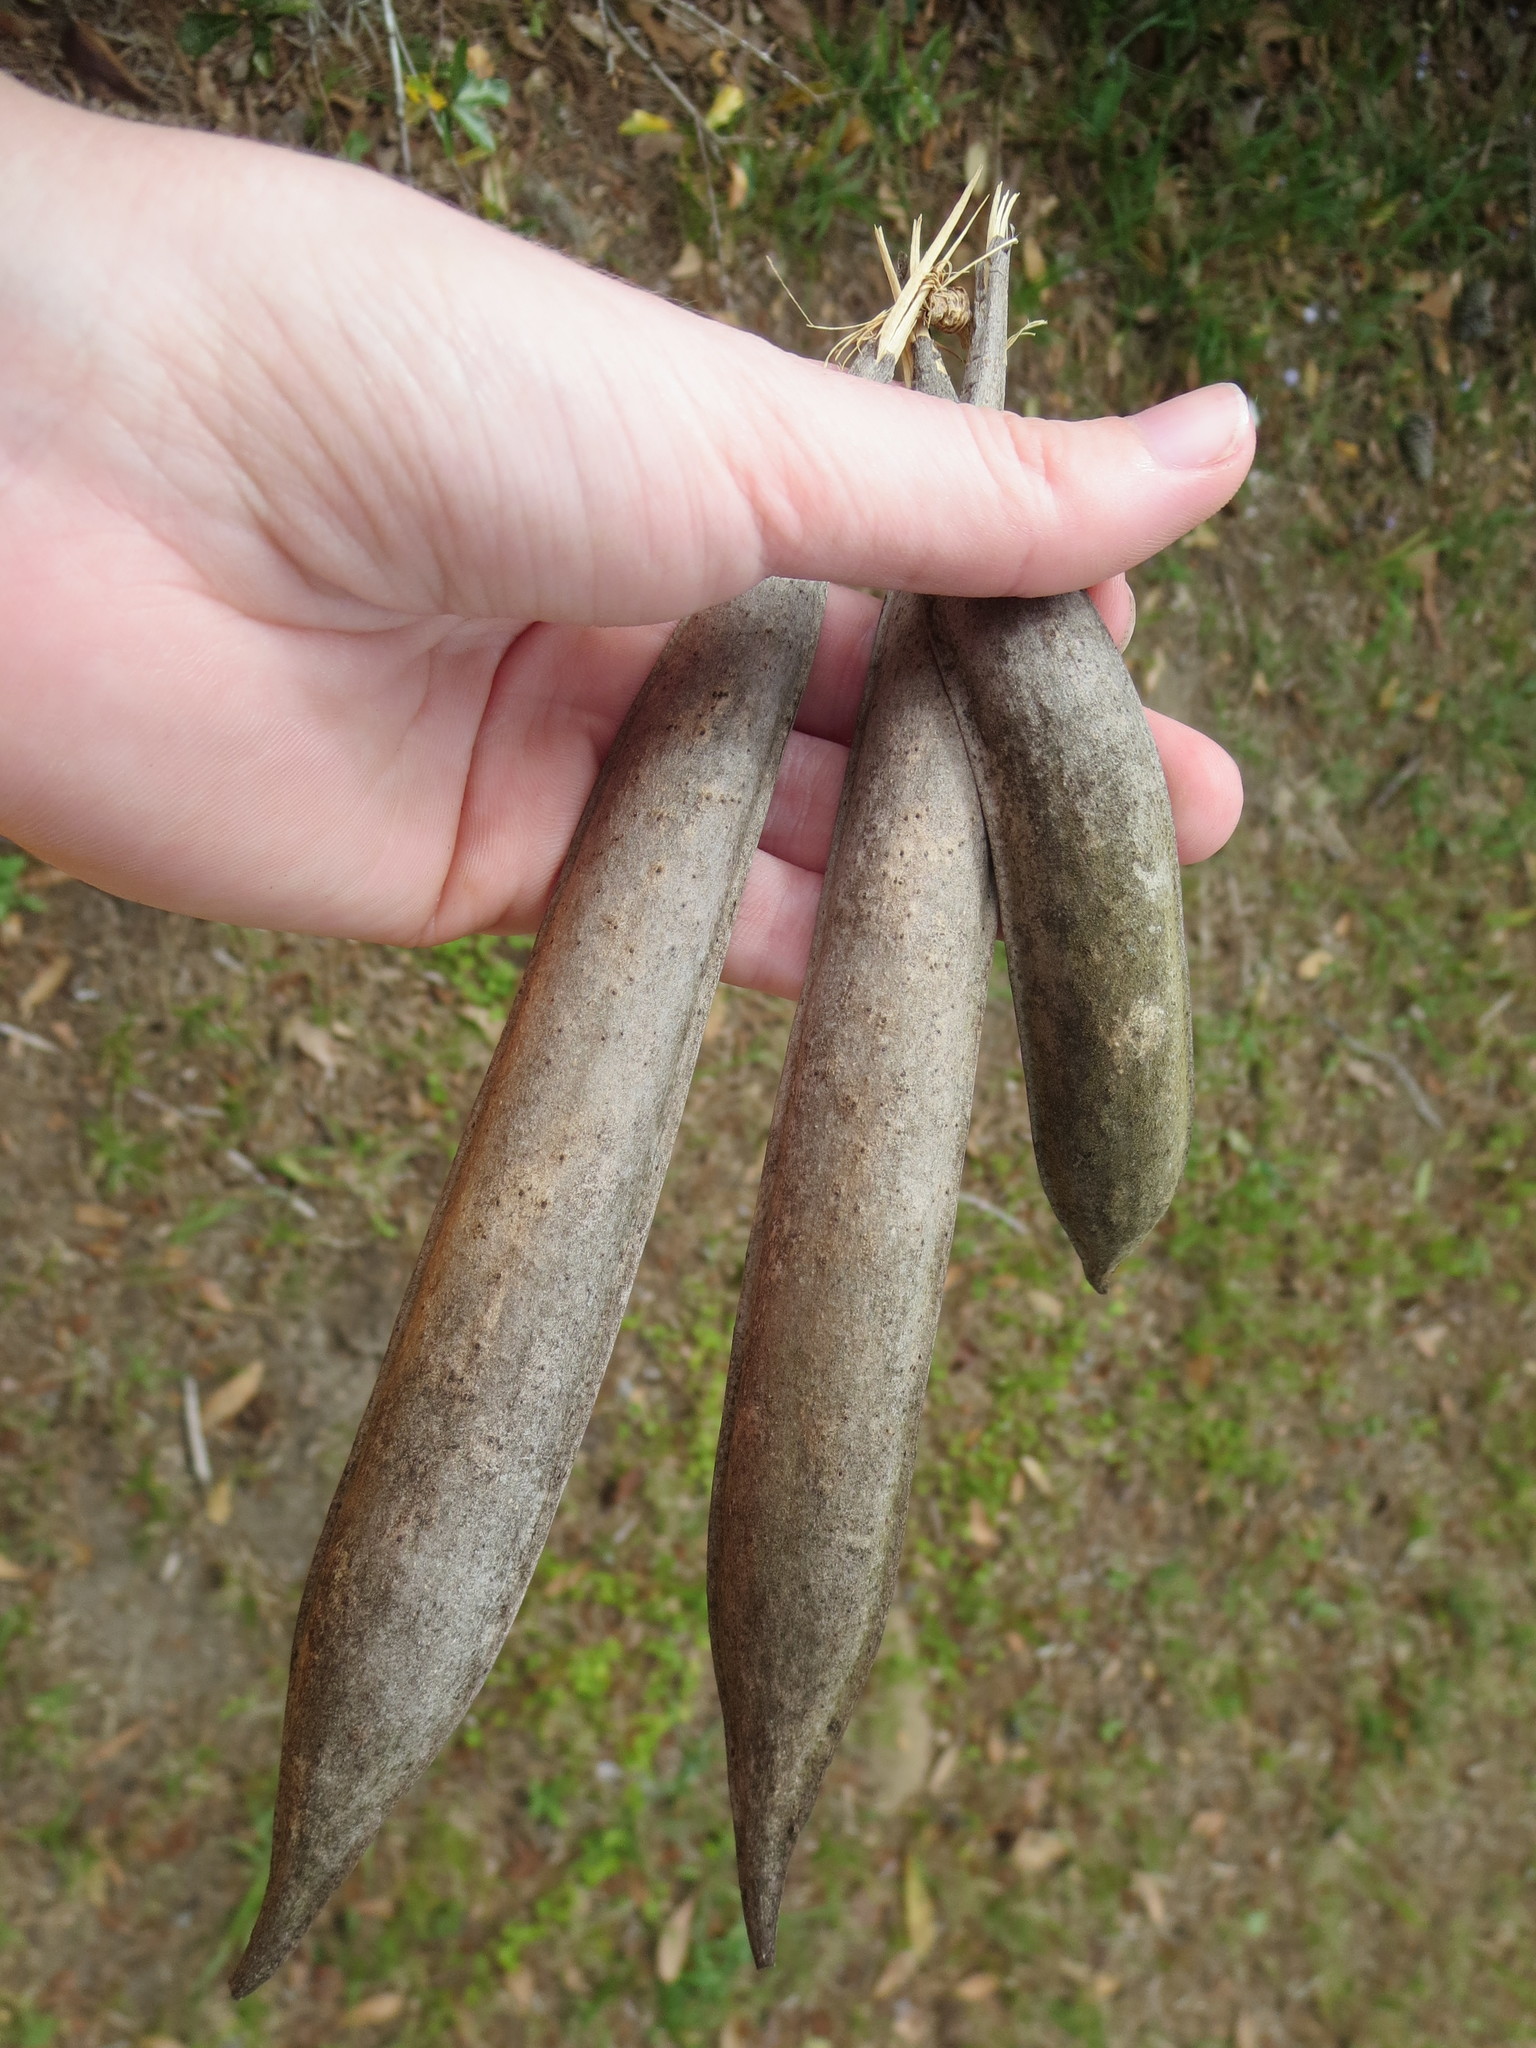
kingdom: Plantae
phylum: Tracheophyta
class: Magnoliopsida
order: Lamiales
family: Bignoniaceae
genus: Campsis
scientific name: Campsis radicans
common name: Trumpet-creeper
